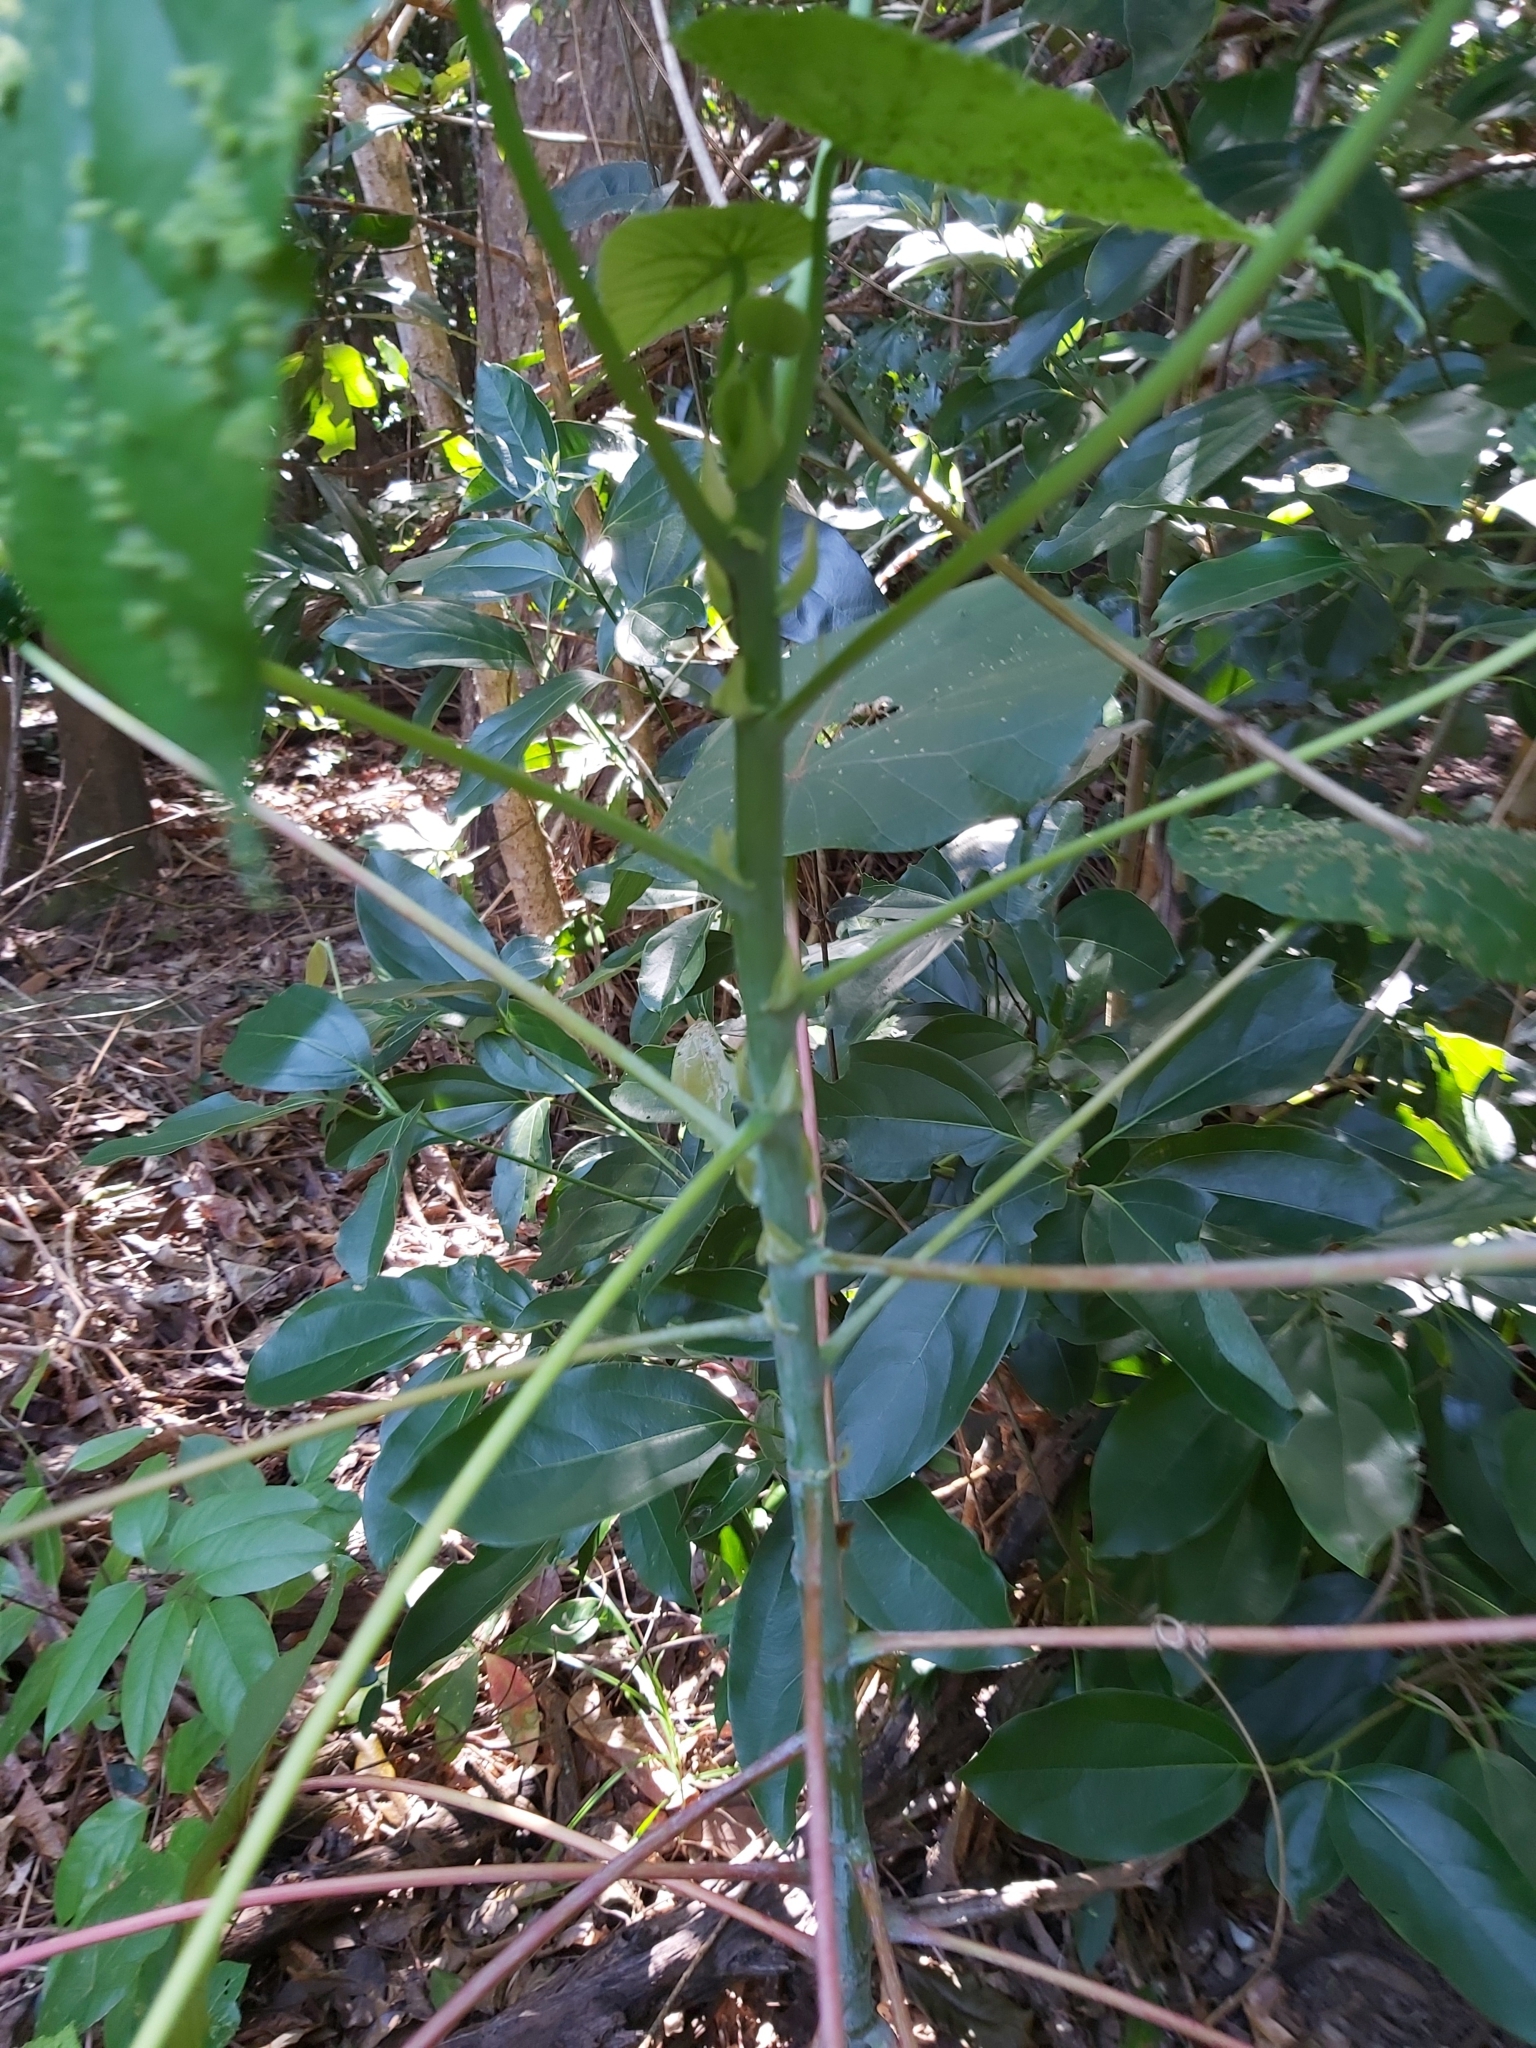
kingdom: Plantae
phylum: Tracheophyta
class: Magnoliopsida
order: Malpighiales
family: Euphorbiaceae
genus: Macaranga
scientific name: Macaranga tanarius
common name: Parasol leaf tree
